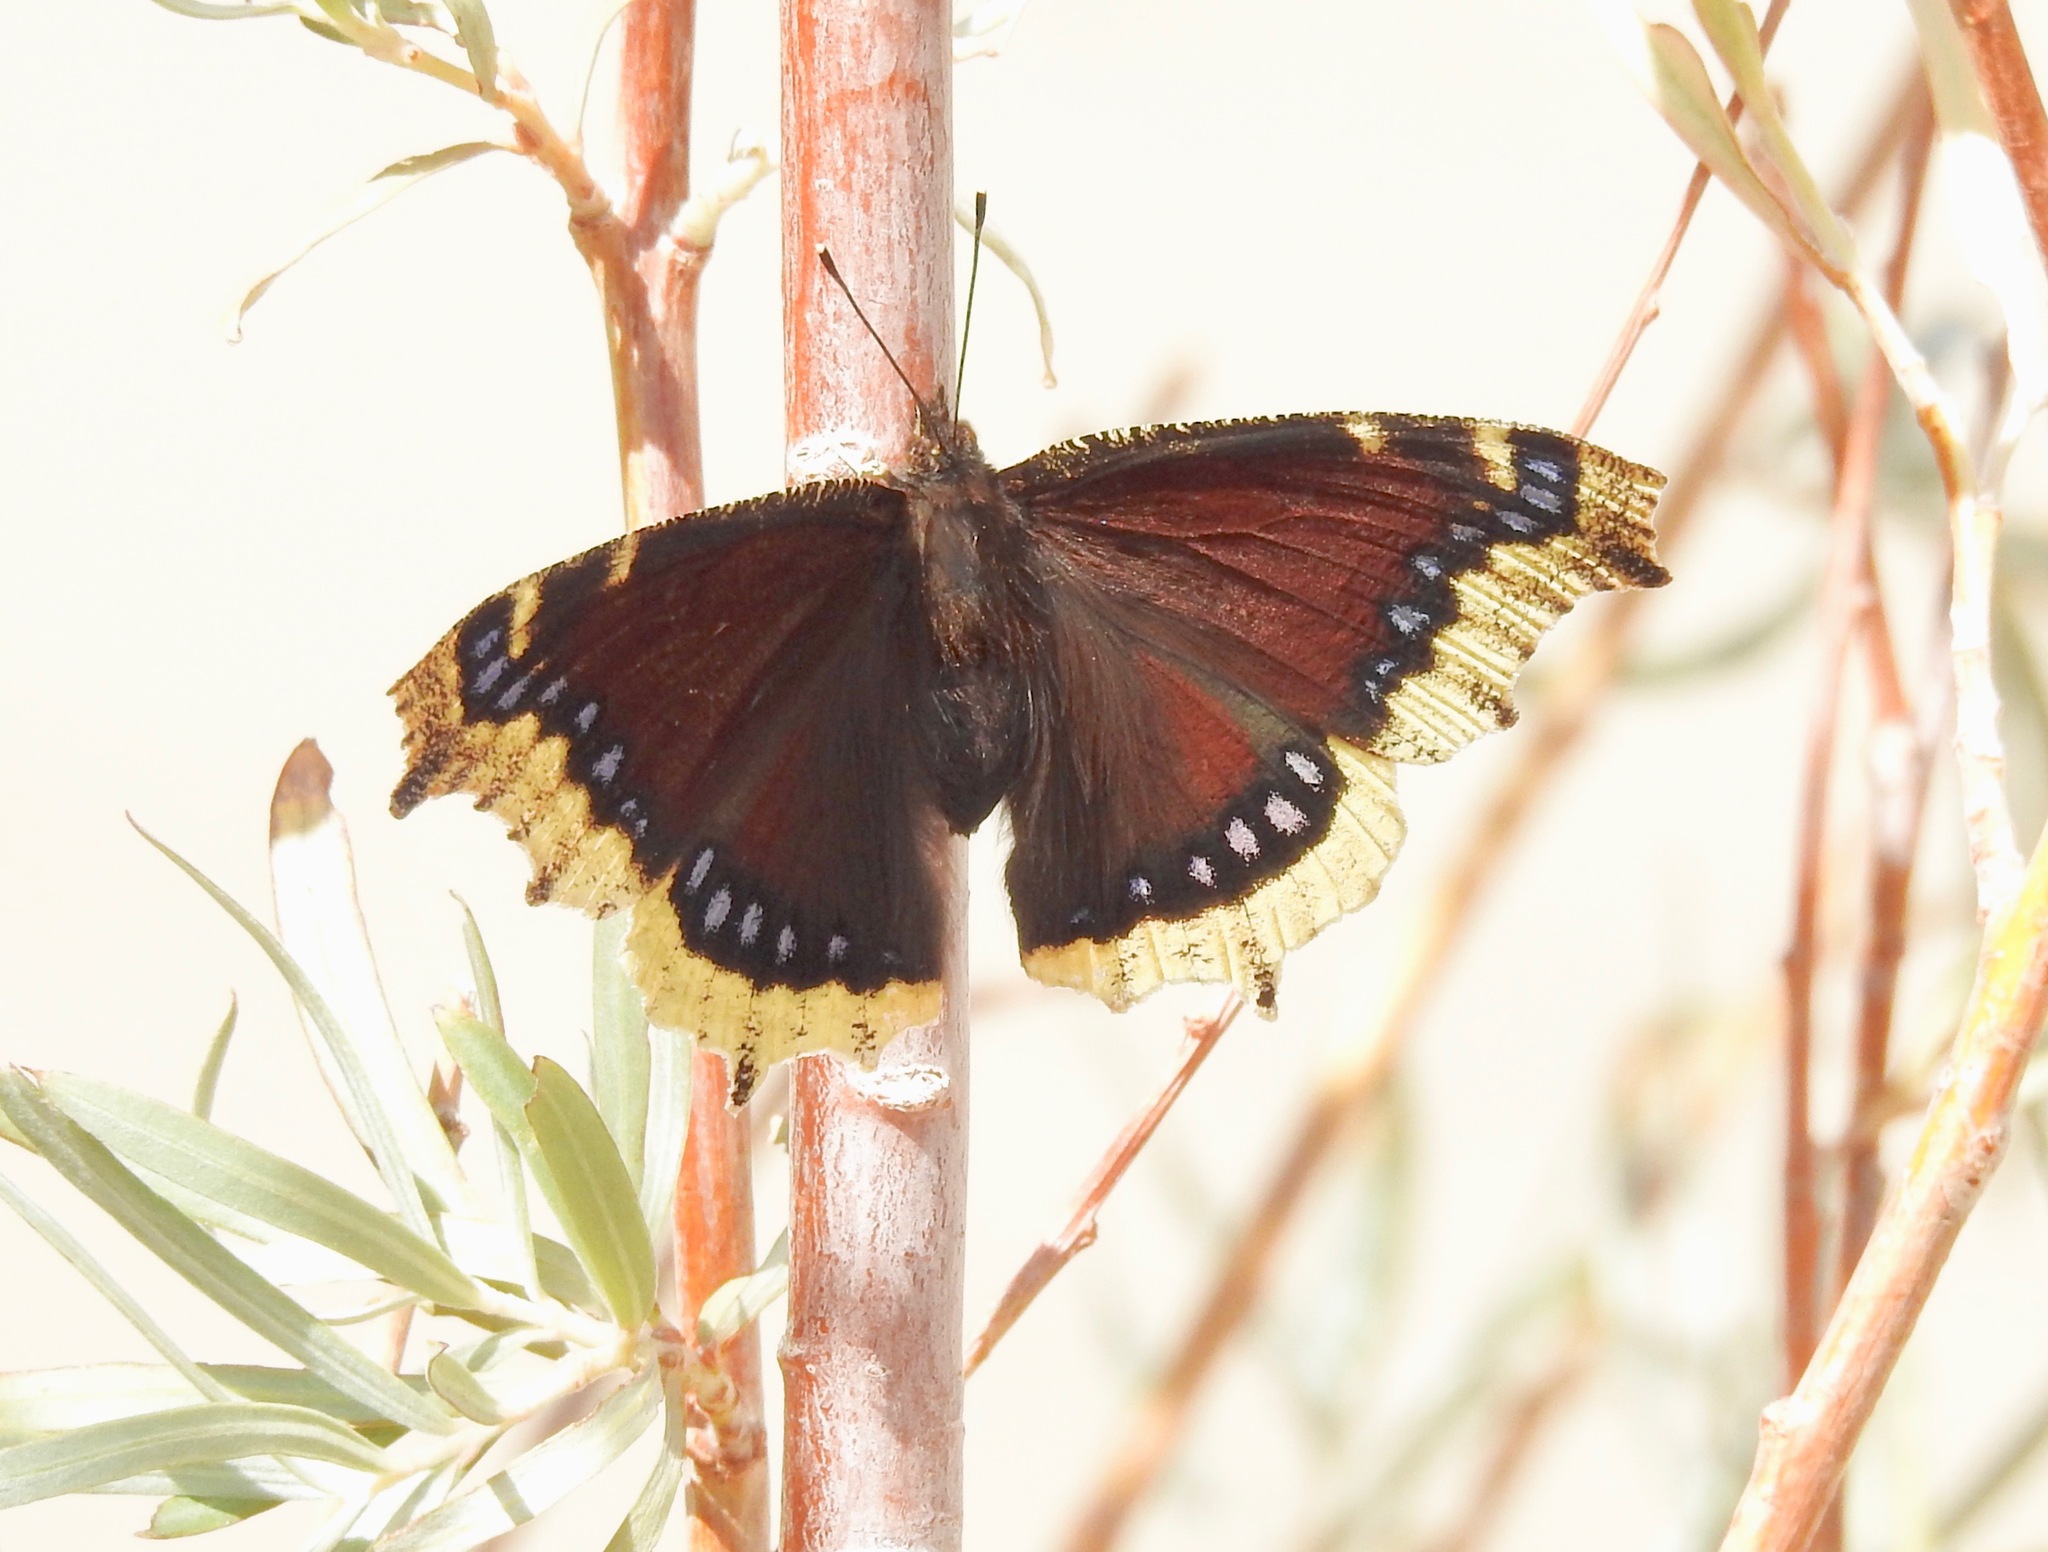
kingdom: Animalia
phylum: Arthropoda
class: Insecta
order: Lepidoptera
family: Nymphalidae
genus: Nymphalis
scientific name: Nymphalis antiopa
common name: Camberwell beauty
